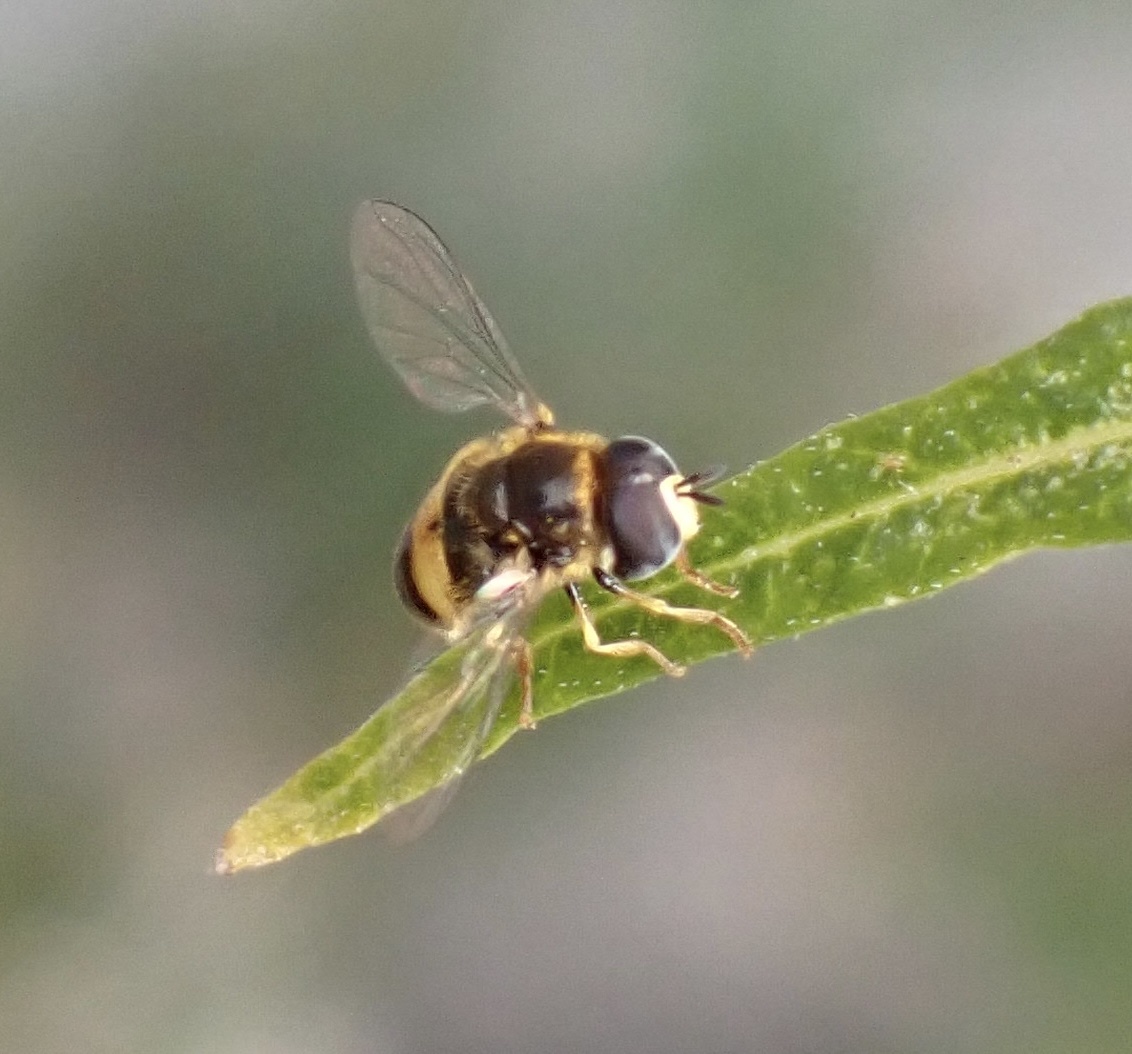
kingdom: Animalia
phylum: Arthropoda
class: Insecta
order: Diptera
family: Syrphidae
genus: Paragus
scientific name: Paragus borbonicus
